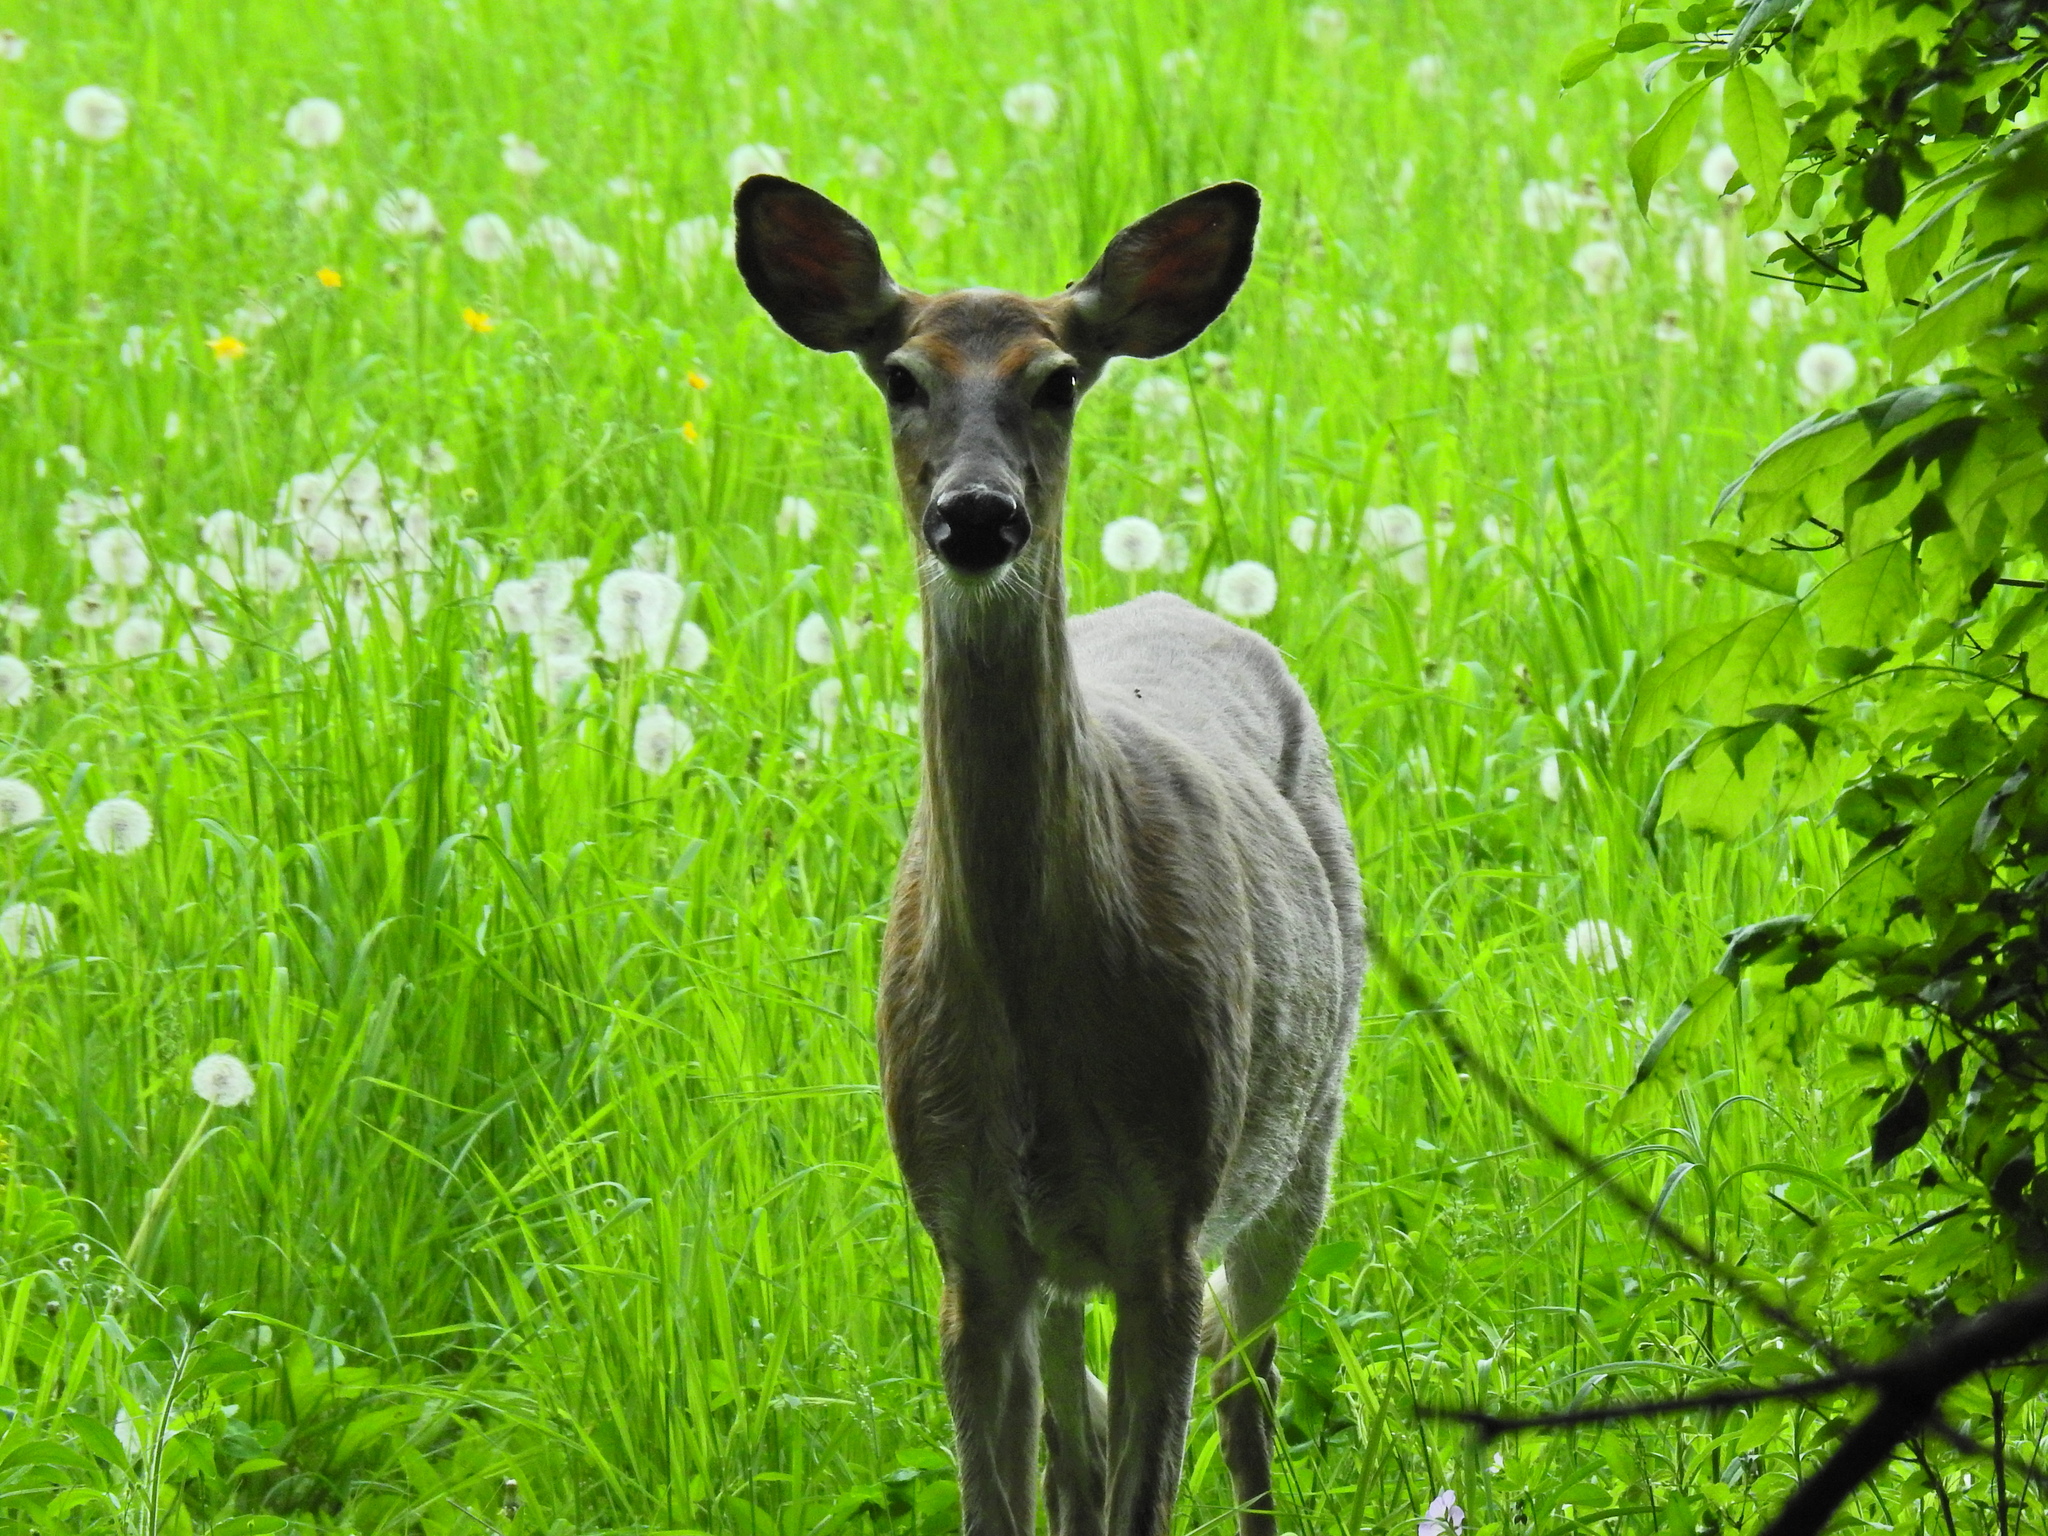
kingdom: Animalia
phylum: Chordata
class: Mammalia
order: Artiodactyla
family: Cervidae
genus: Odocoileus
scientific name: Odocoileus virginianus
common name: White-tailed deer
